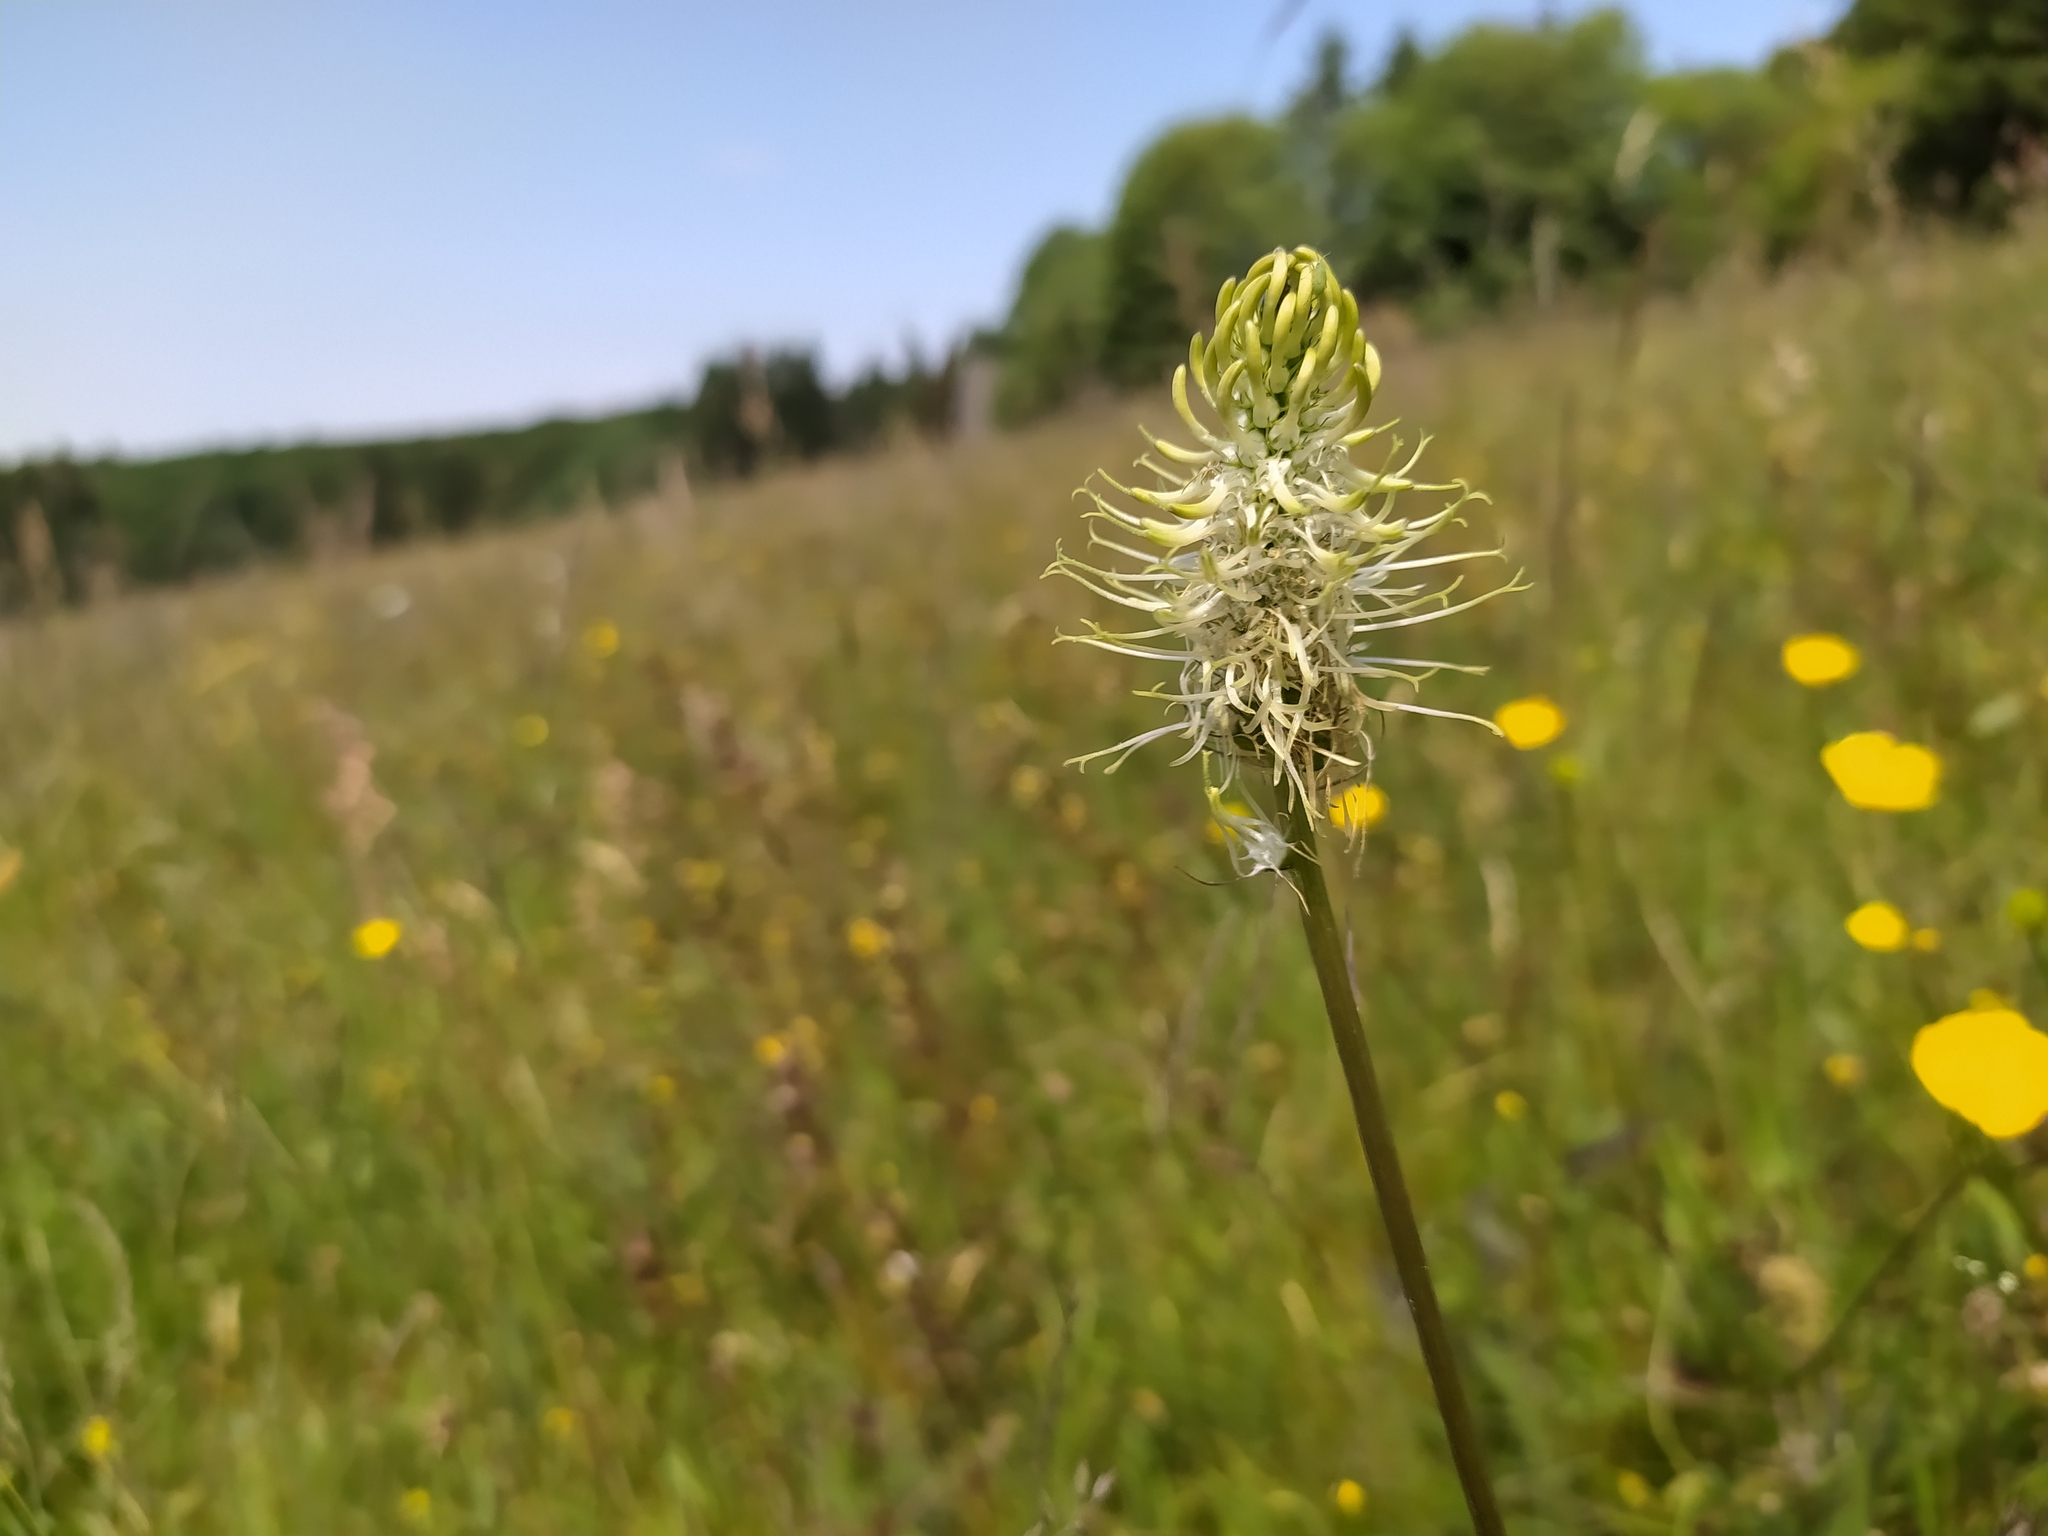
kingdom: Plantae
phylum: Tracheophyta
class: Magnoliopsida
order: Asterales
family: Campanulaceae
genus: Phyteuma
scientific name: Phyteuma spicatum
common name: Spiked rampion
